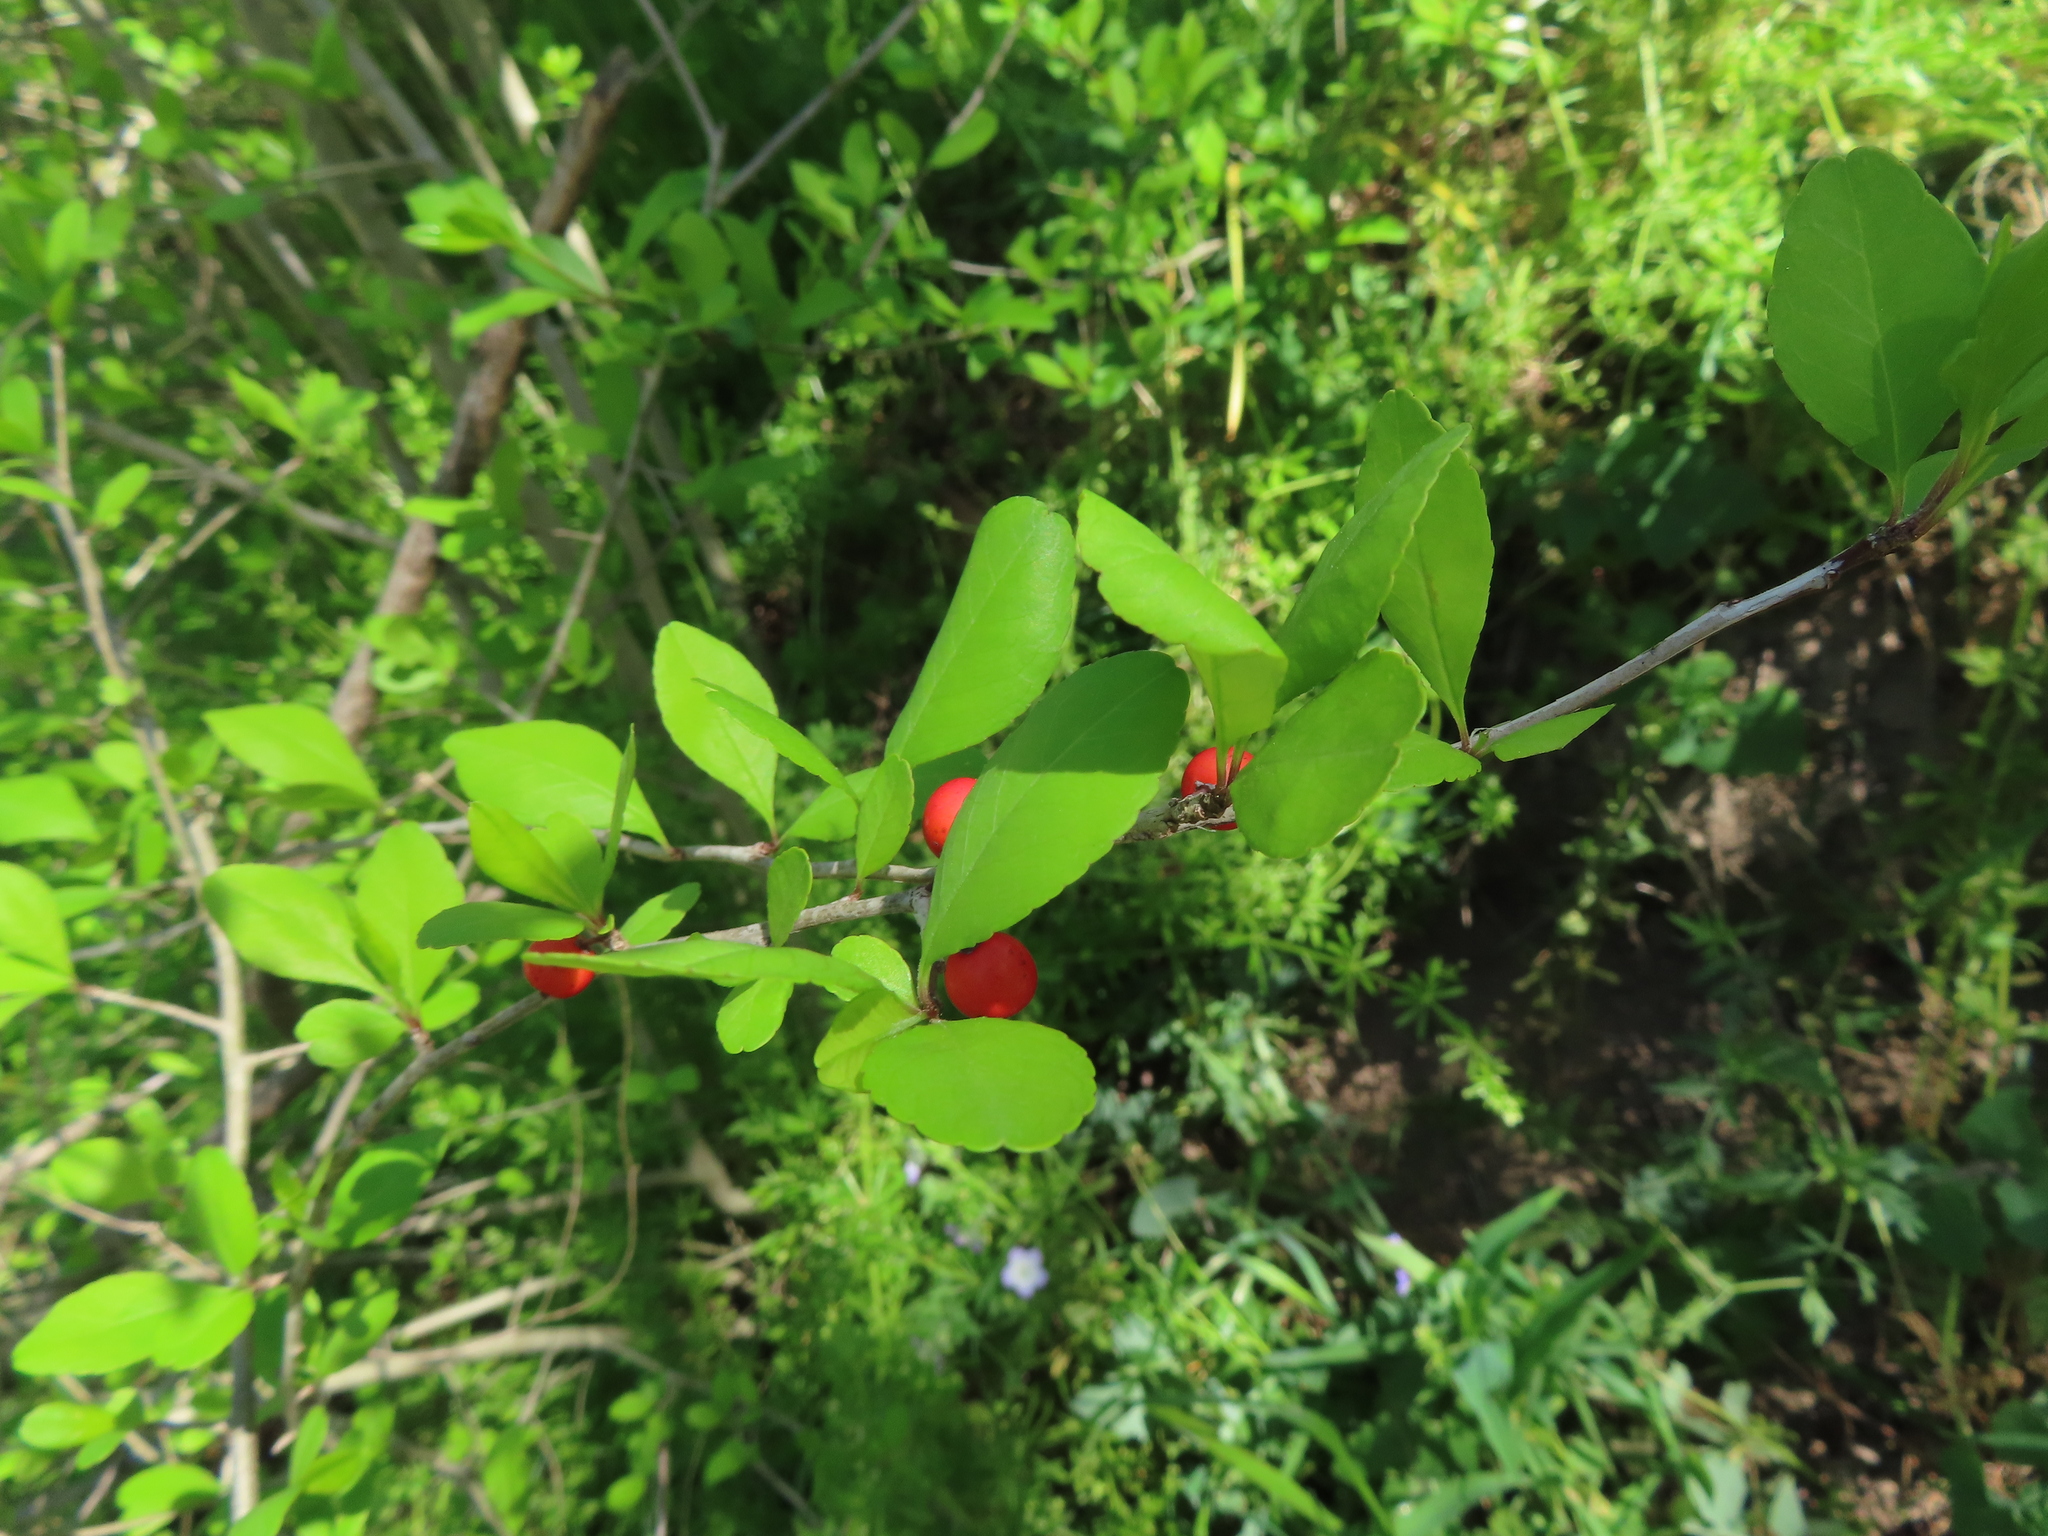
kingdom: Plantae
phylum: Tracheophyta
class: Magnoliopsida
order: Aquifoliales
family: Aquifoliaceae
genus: Ilex
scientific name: Ilex decidua
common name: Possum-haw
